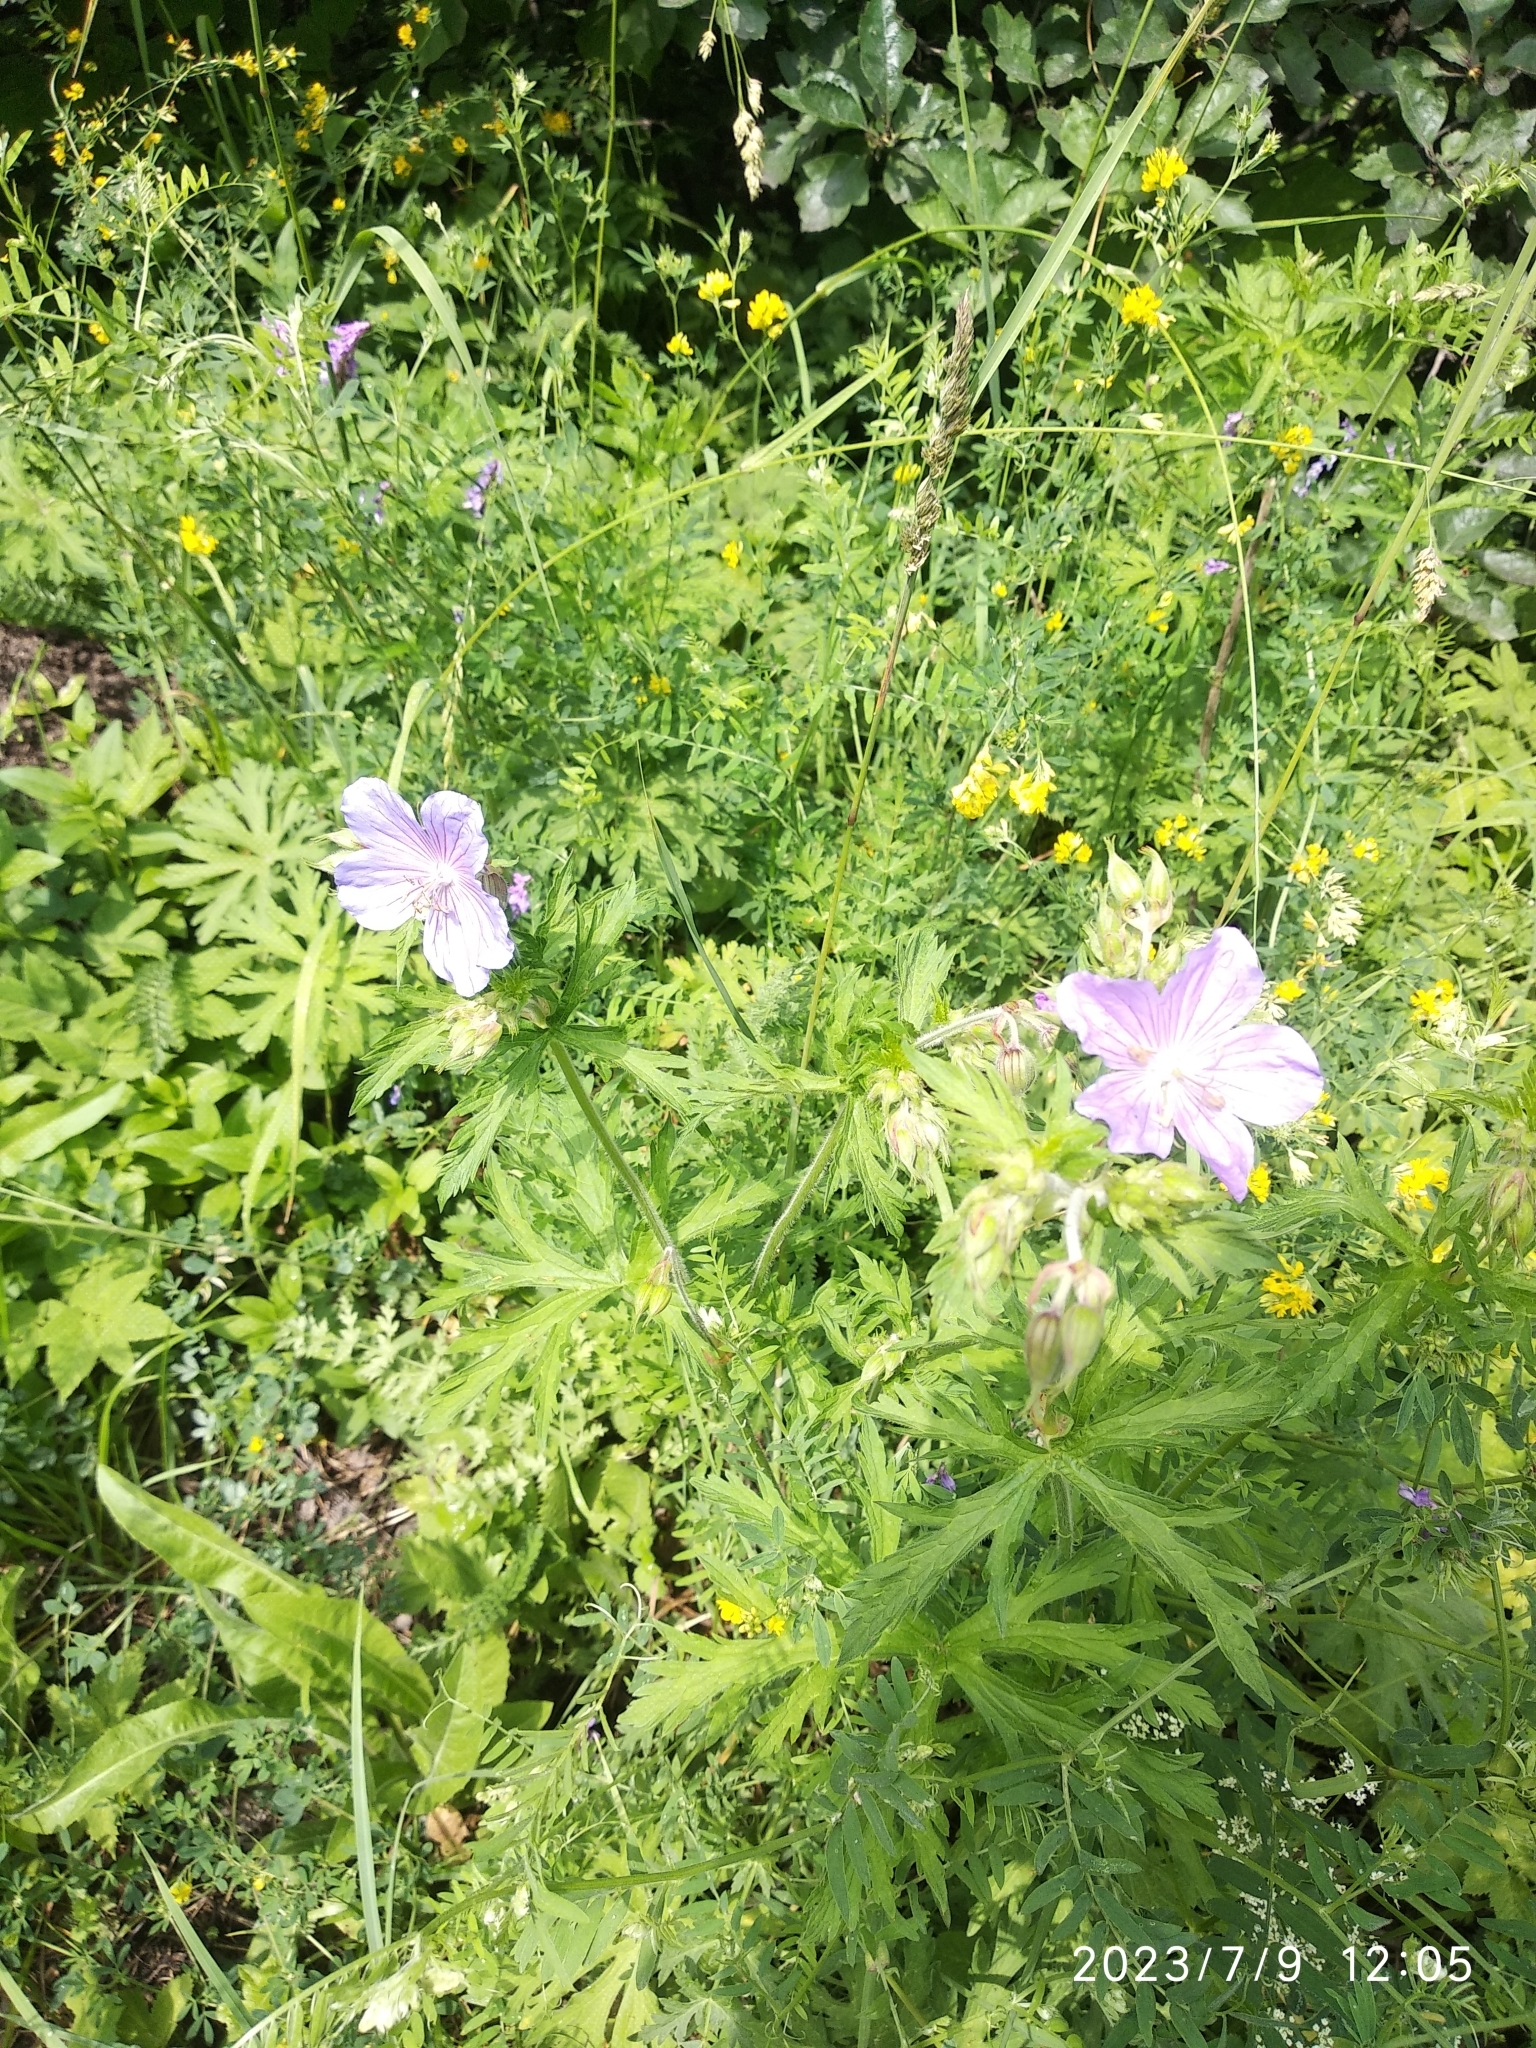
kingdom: Plantae
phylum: Tracheophyta
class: Magnoliopsida
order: Geraniales
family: Geraniaceae
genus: Geranium
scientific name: Geranium pratense
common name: Meadow crane's-bill
